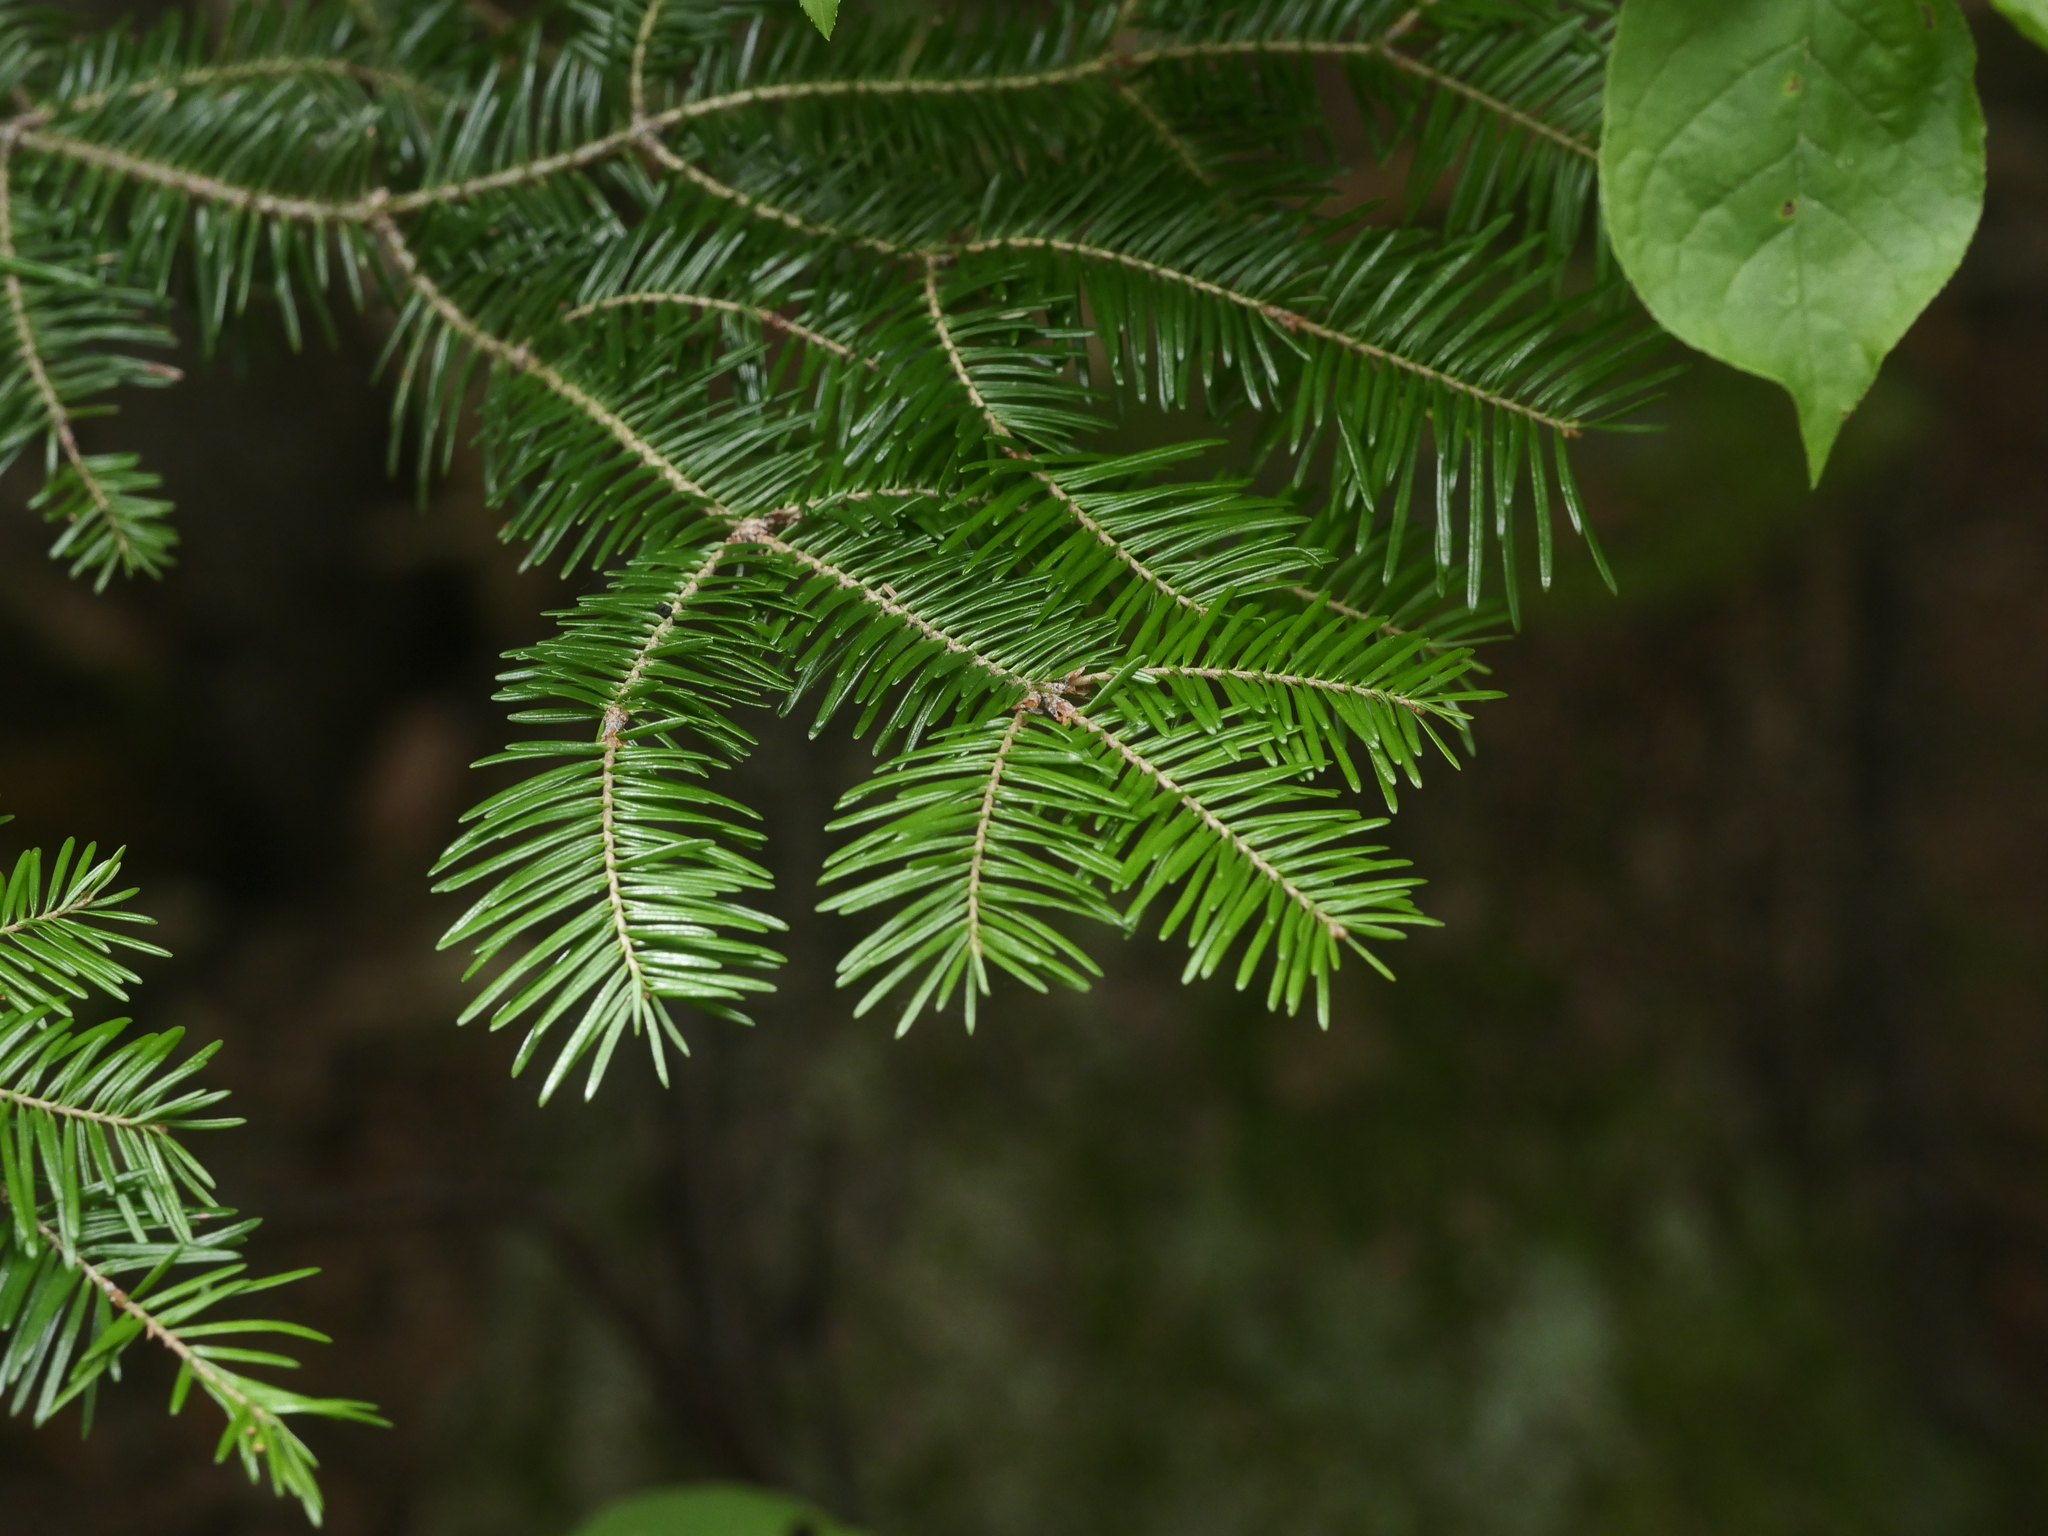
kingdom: Plantae
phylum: Tracheophyta
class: Pinopsida
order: Pinales
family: Pinaceae
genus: Abies
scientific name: Abies balsamea
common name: Balsam fir
